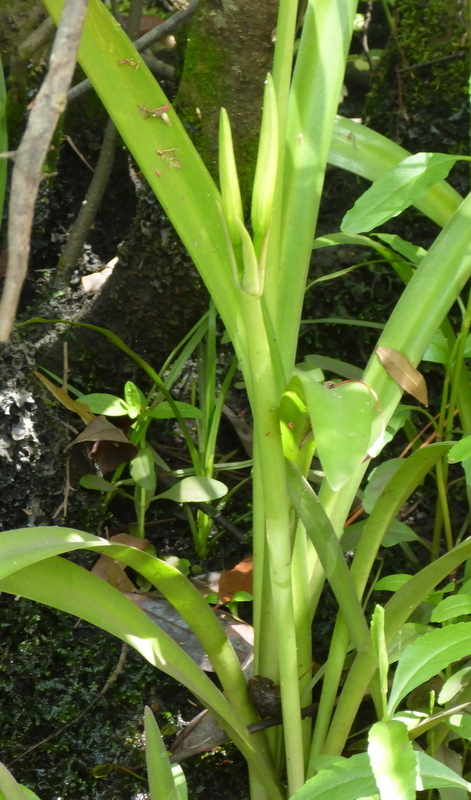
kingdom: Plantae
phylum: Tracheophyta
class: Liliopsida
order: Asparagales
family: Amaryllidaceae
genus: Hymenocallis
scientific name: Hymenocallis franklinensis
